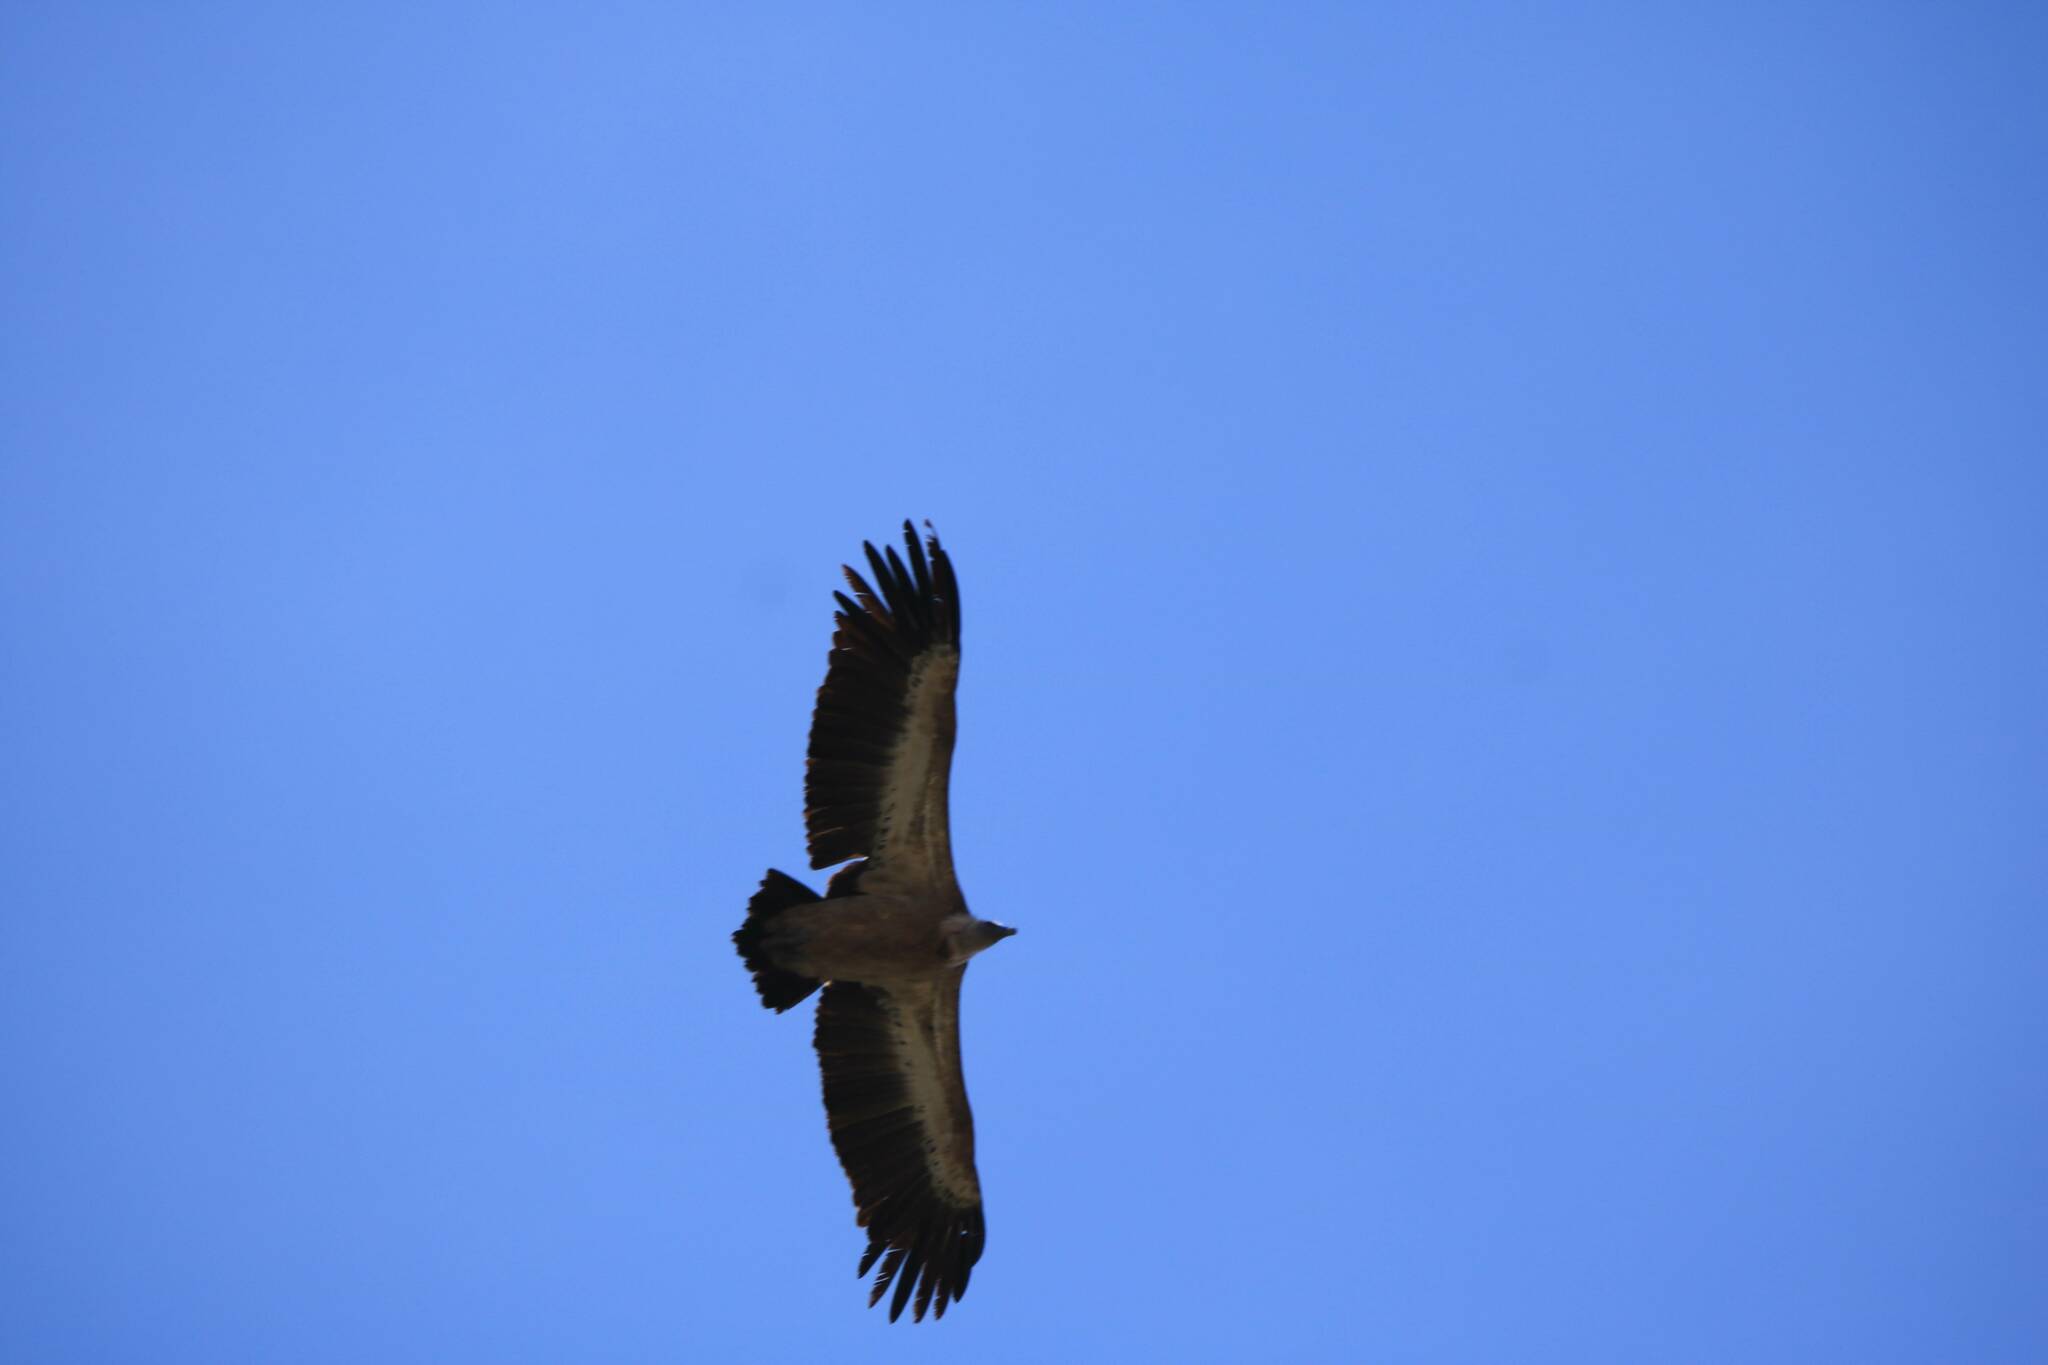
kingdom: Animalia
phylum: Chordata
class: Aves
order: Accipitriformes
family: Accipitridae
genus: Gyps
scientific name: Gyps fulvus
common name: Griffon vulture
